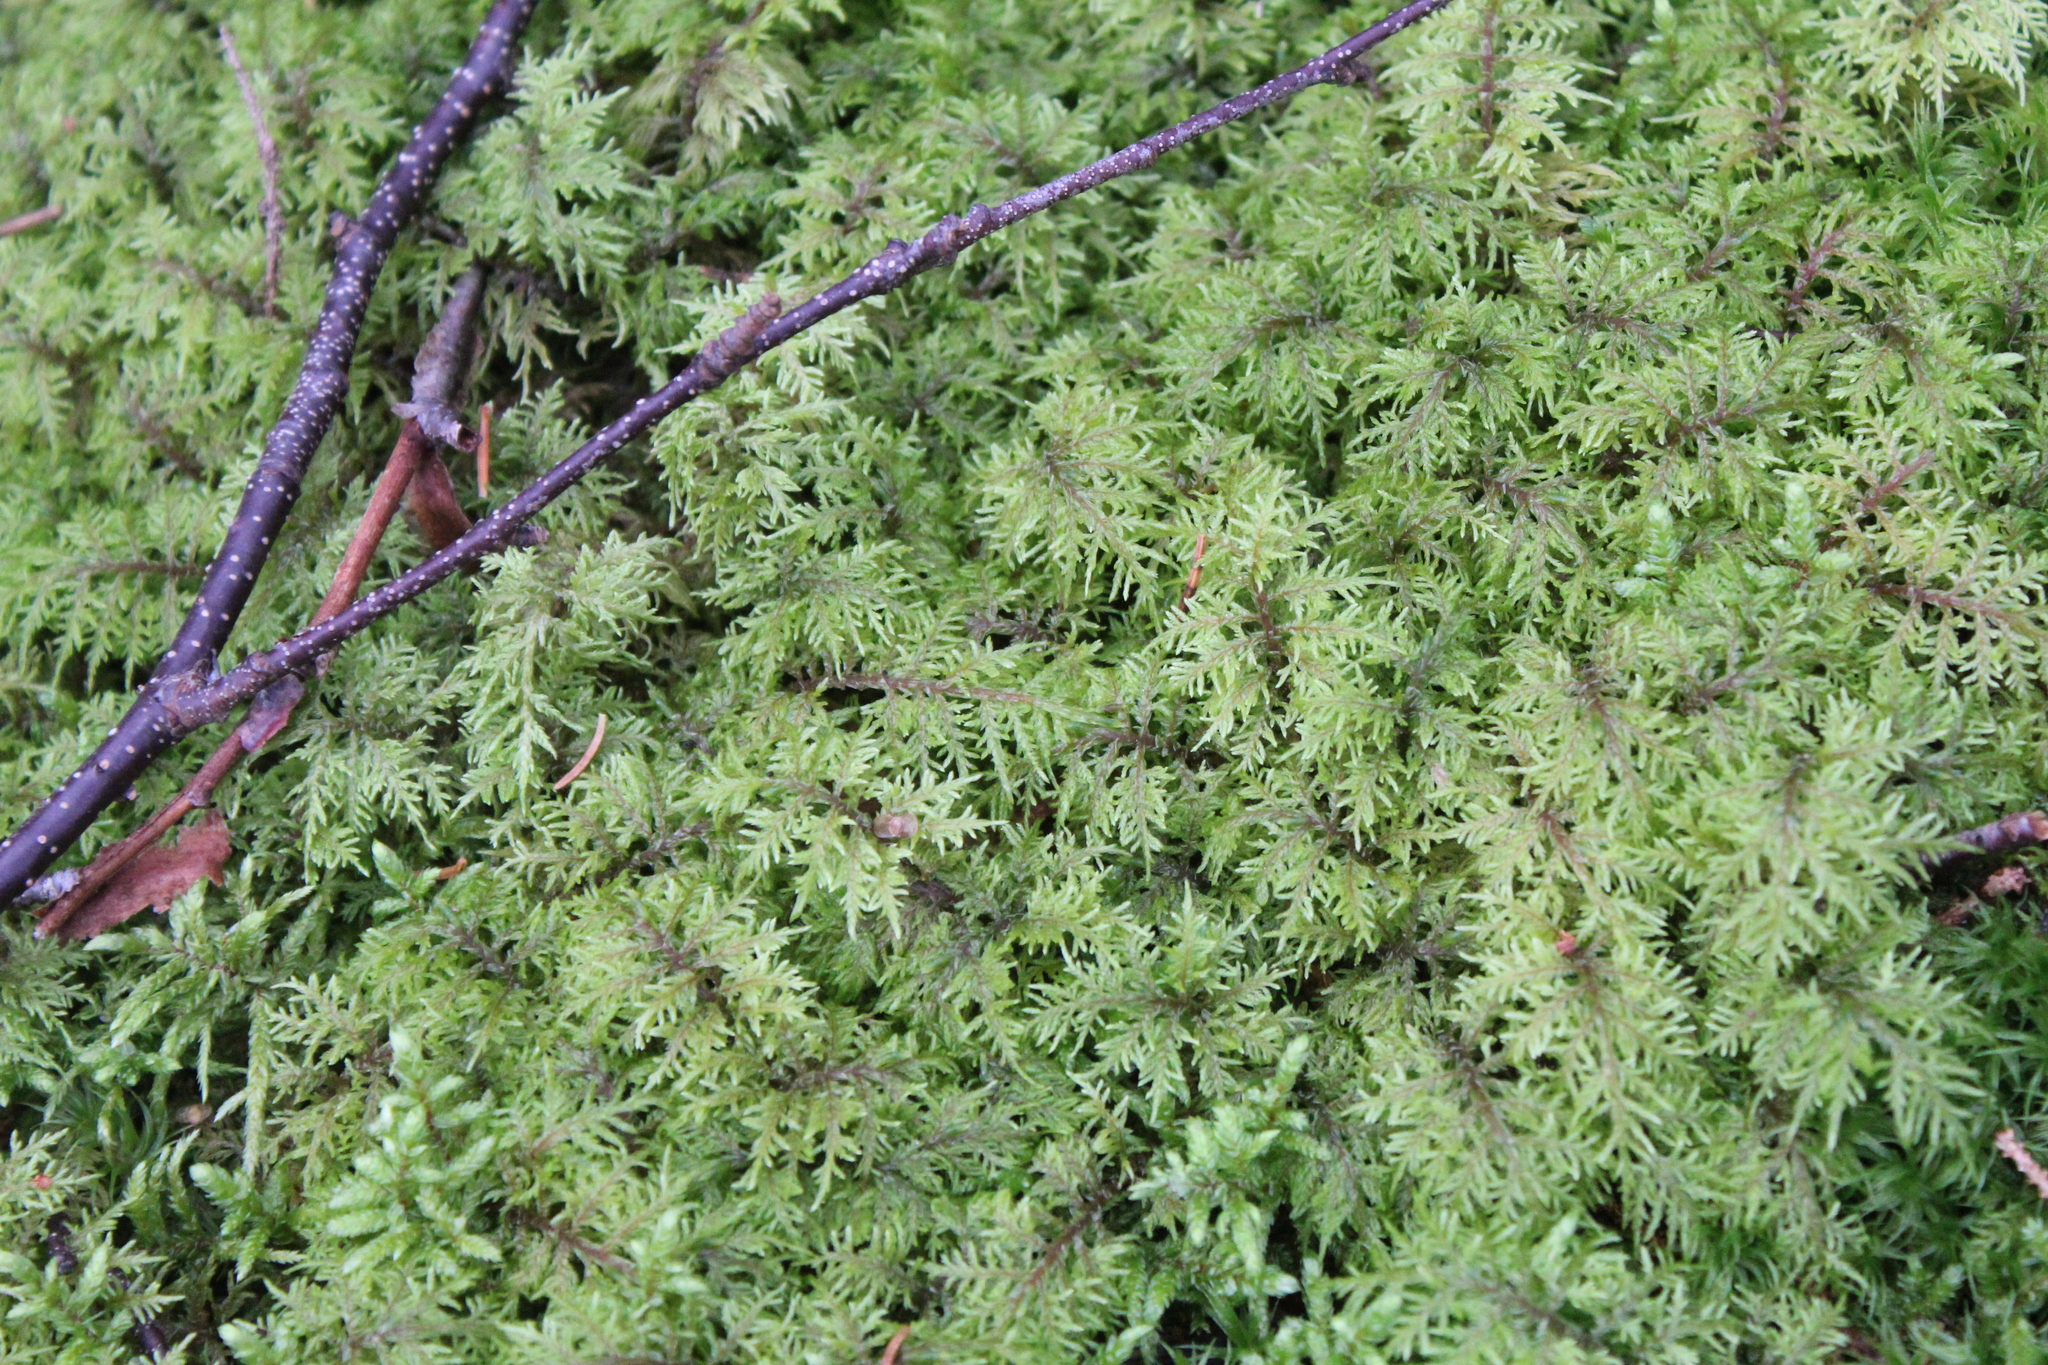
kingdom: Plantae
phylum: Bryophyta
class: Bryopsida
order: Hypnales
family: Hylocomiaceae
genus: Hylocomium
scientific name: Hylocomium splendens
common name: Stairstep moss
